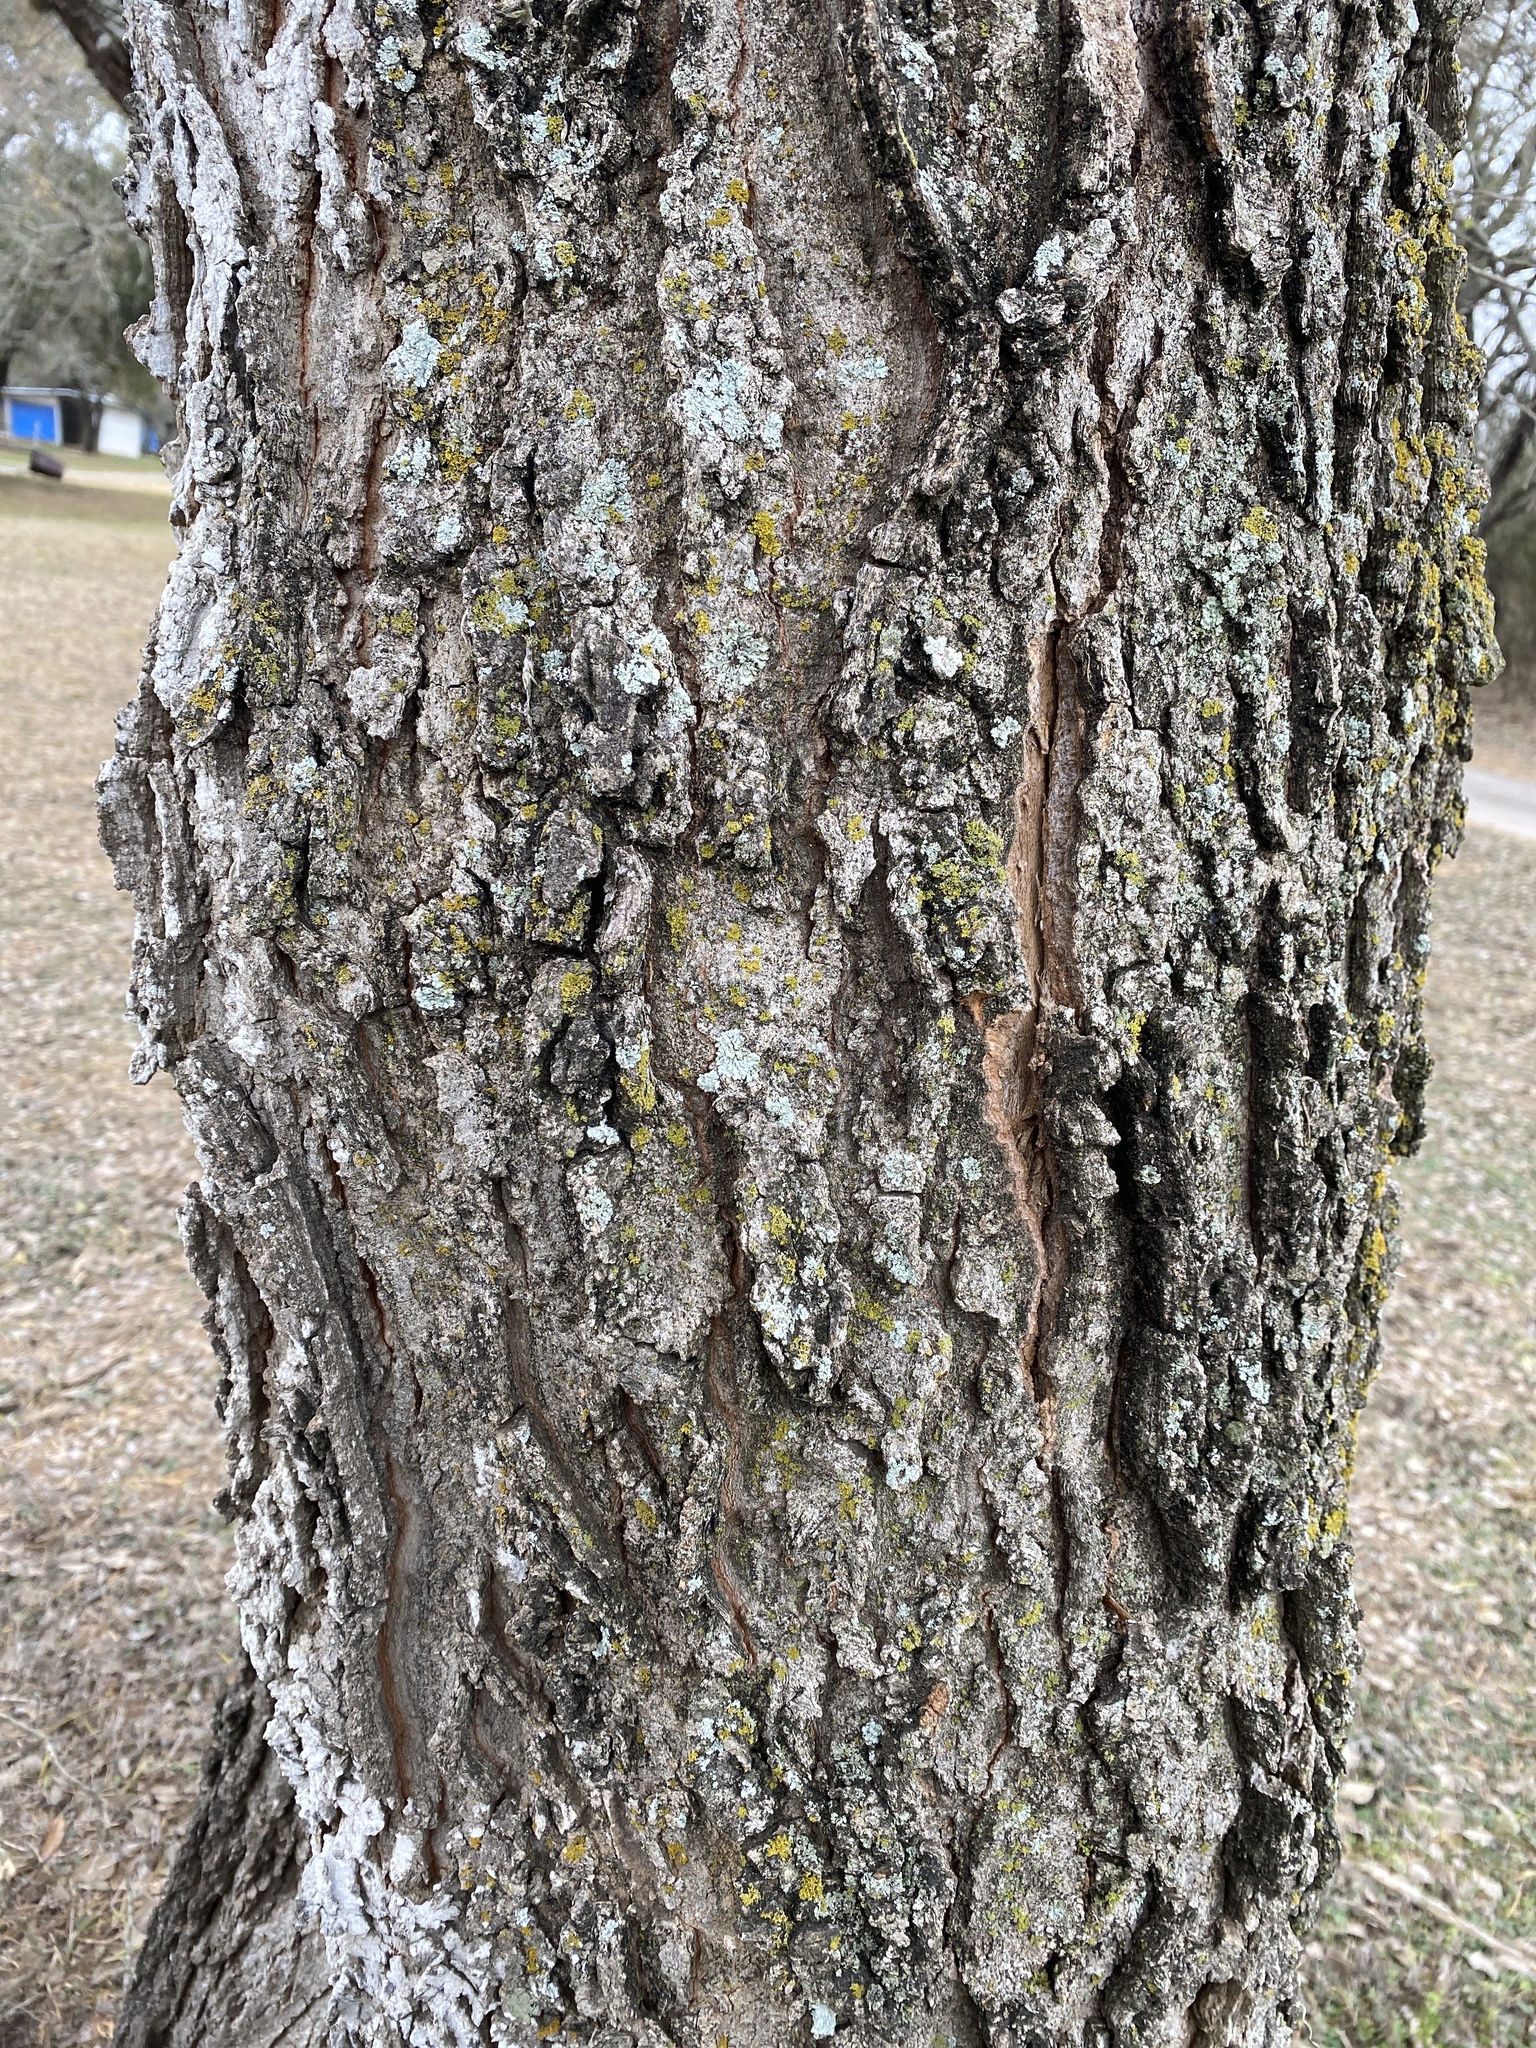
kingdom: Plantae
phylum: Tracheophyta
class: Magnoliopsida
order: Rosales
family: Cannabaceae
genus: Celtis
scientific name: Celtis laevigata
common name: Sugarberry
